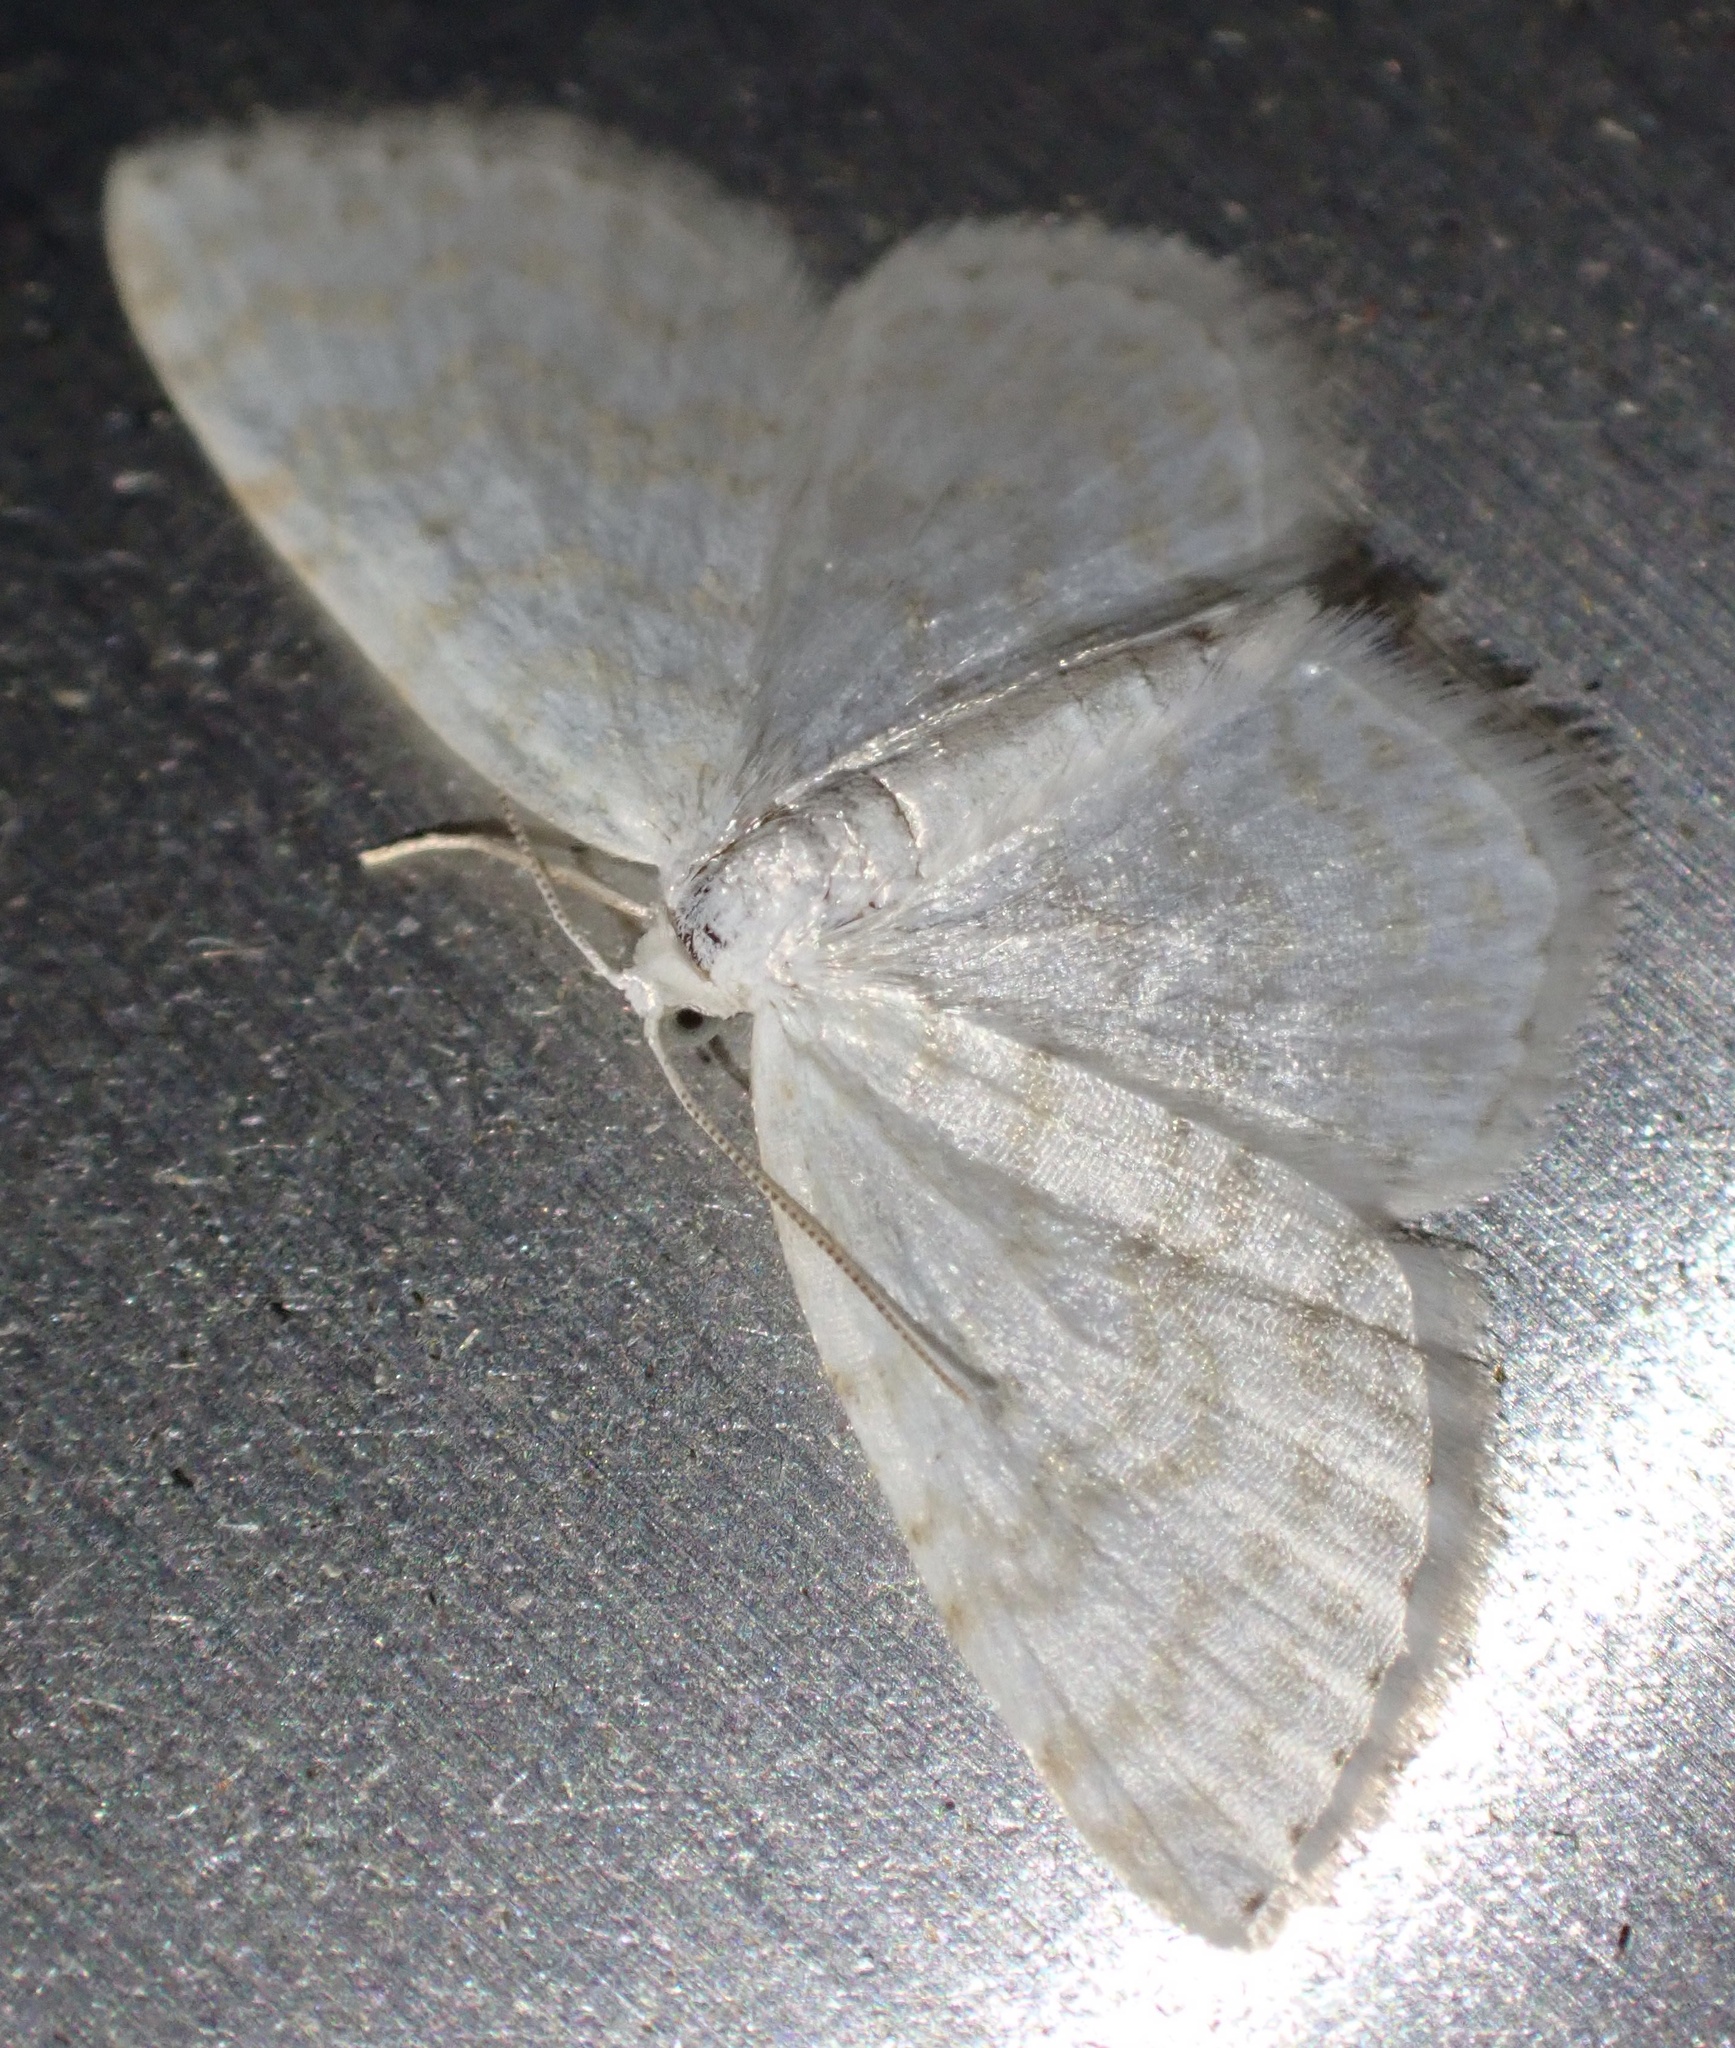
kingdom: Animalia
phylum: Arthropoda
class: Insecta
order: Lepidoptera
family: Geometridae
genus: Asthena
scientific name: Asthena albulata
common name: Small white wave
